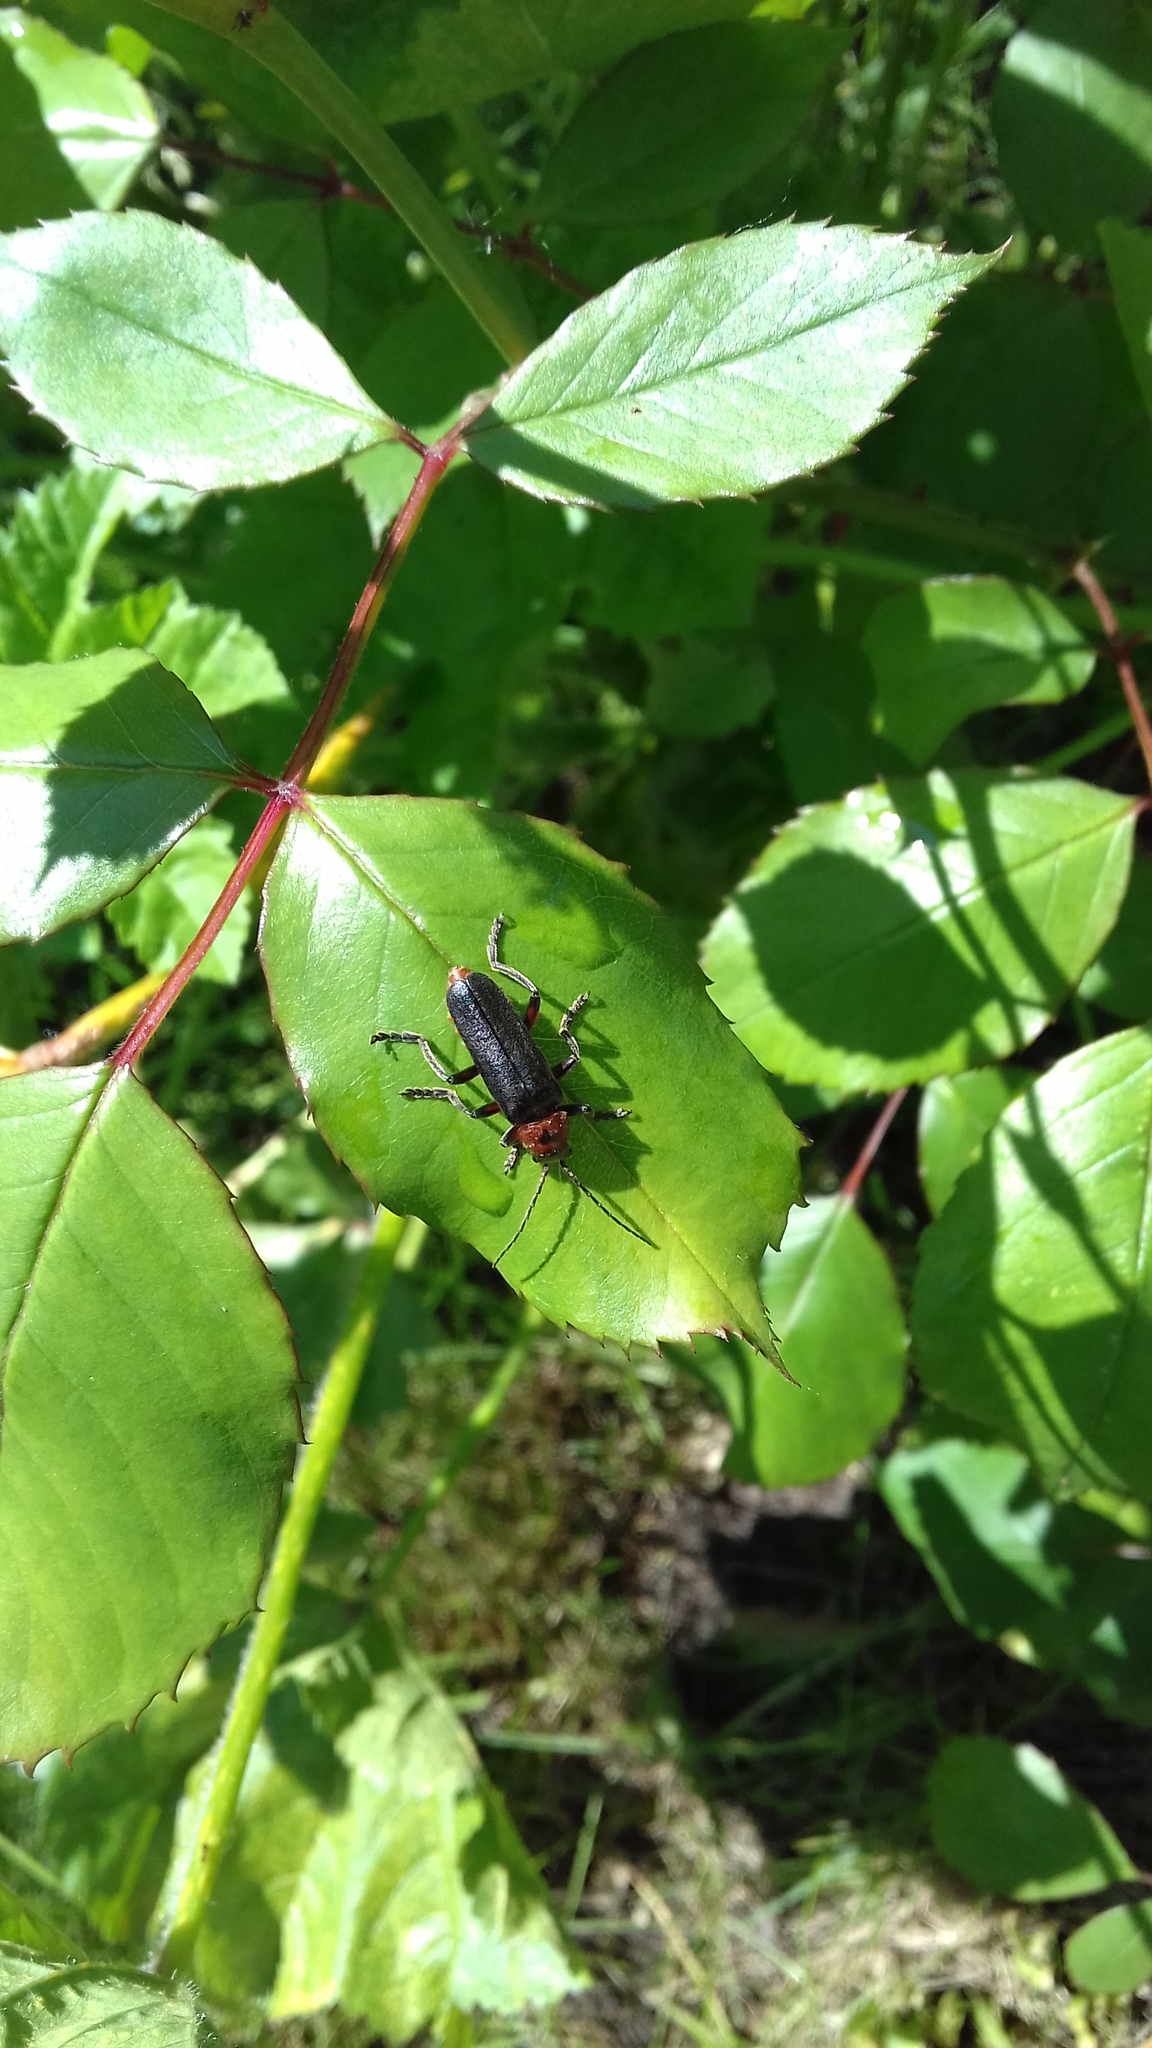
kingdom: Animalia
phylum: Arthropoda
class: Insecta
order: Coleoptera
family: Cantharidae
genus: Cantharis
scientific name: Cantharis rustica
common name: Soldier beetle
